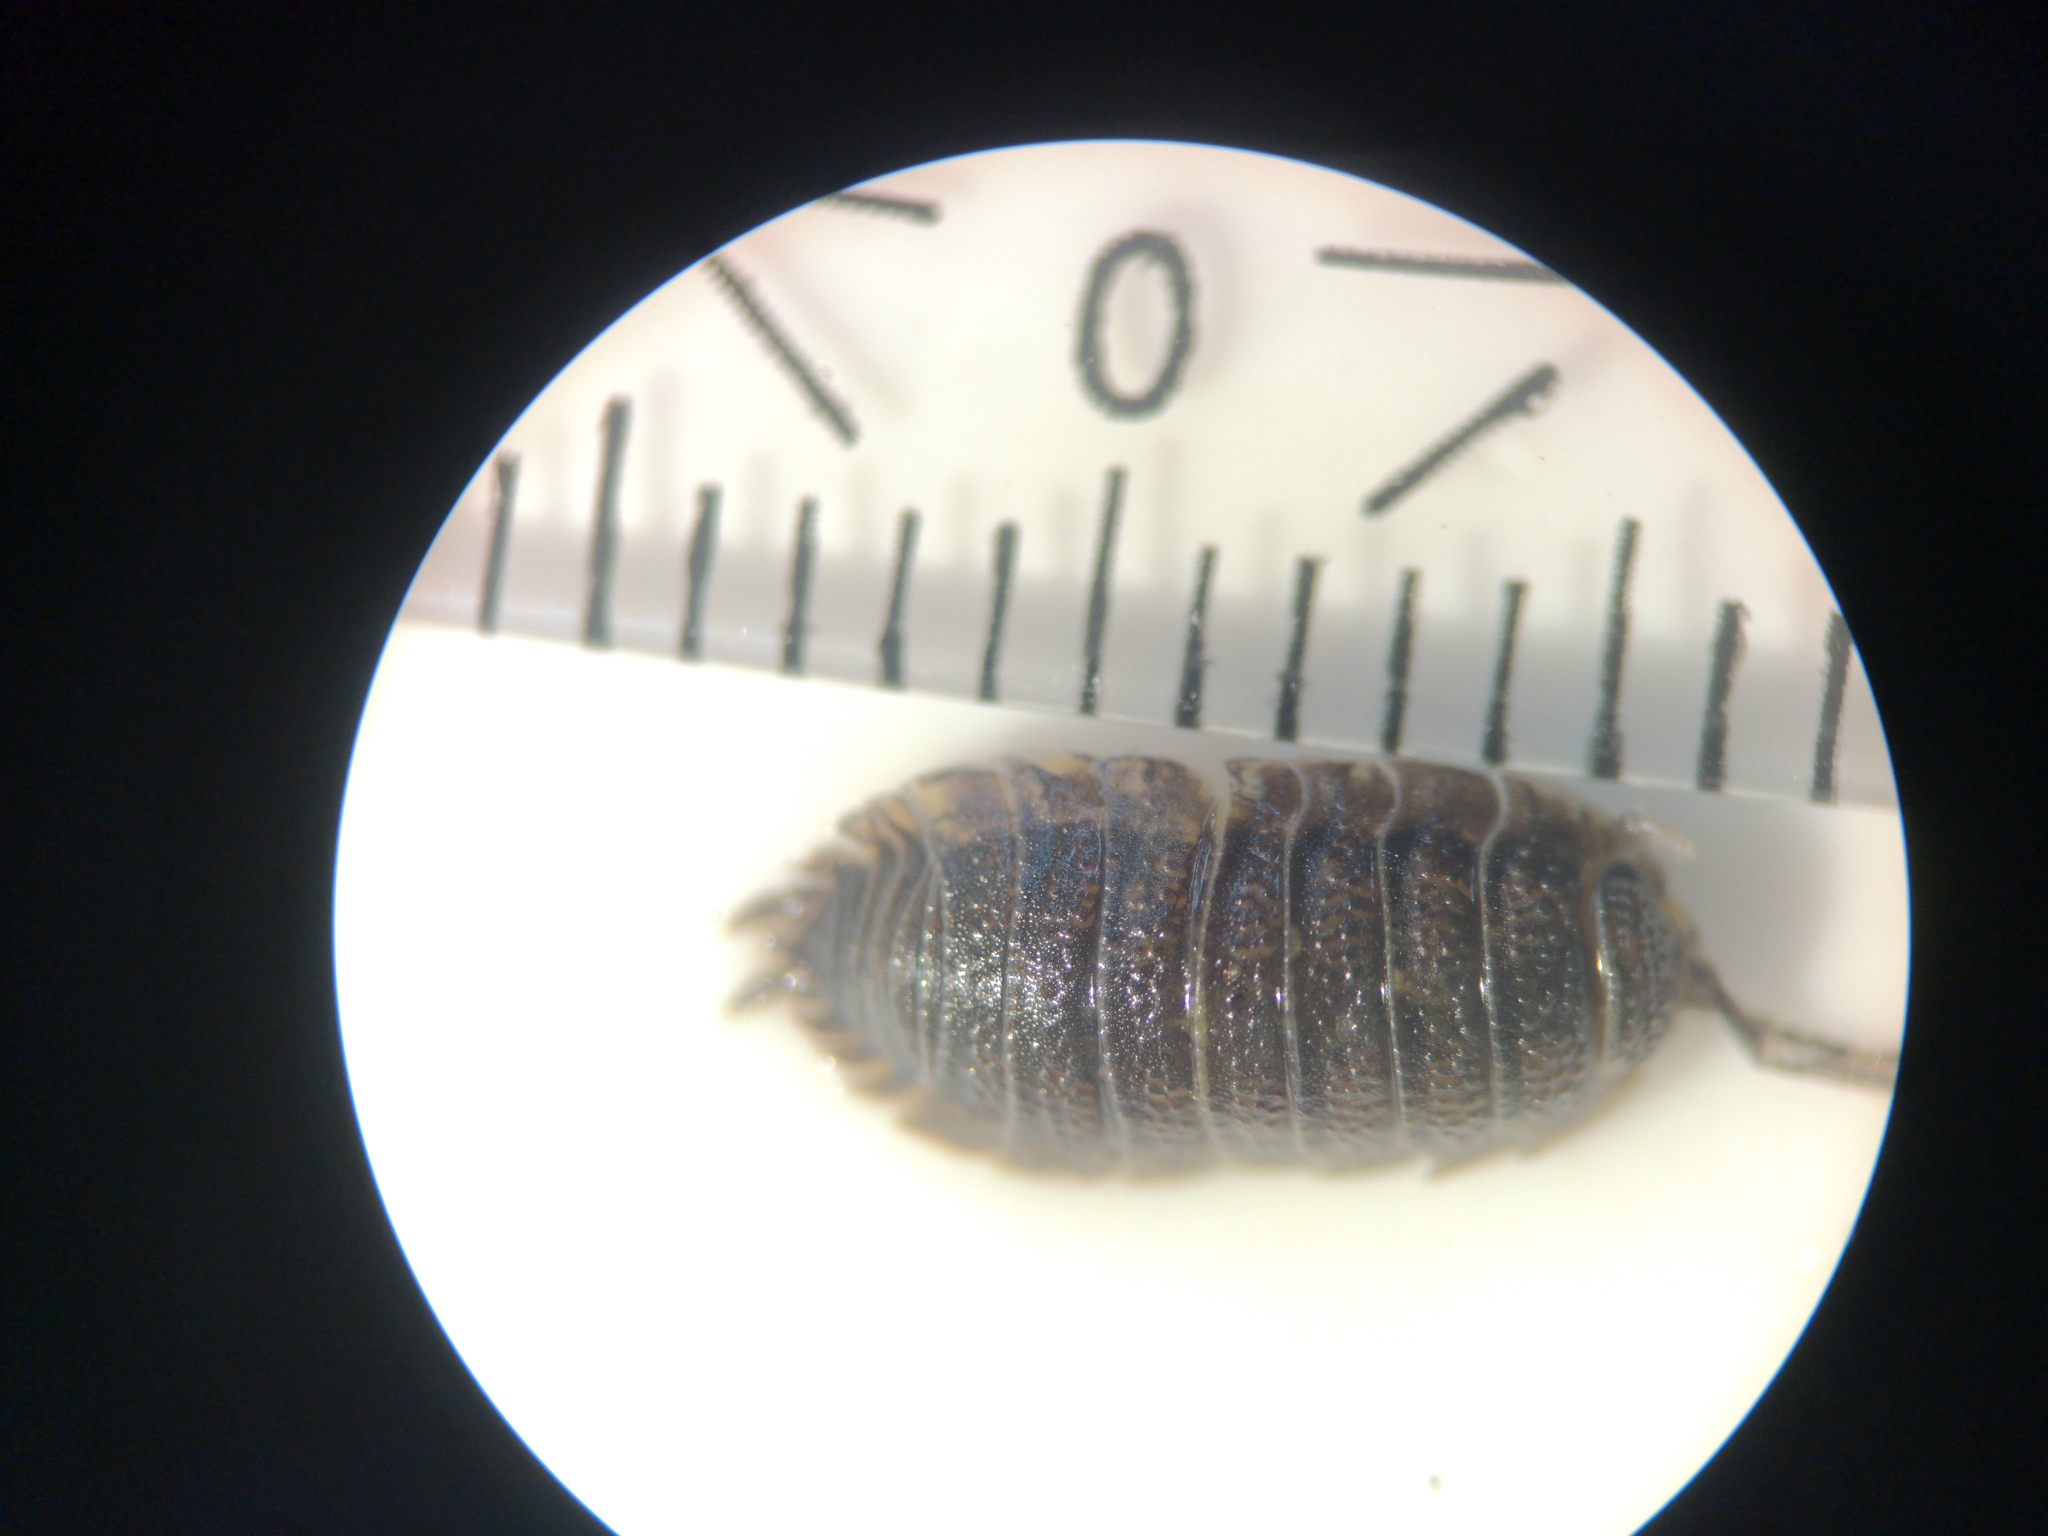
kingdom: Animalia
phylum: Arthropoda
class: Malacostraca
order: Isopoda
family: Porcellionidae
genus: Porcellio
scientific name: Porcellio scaber
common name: Common rough woodlouse
